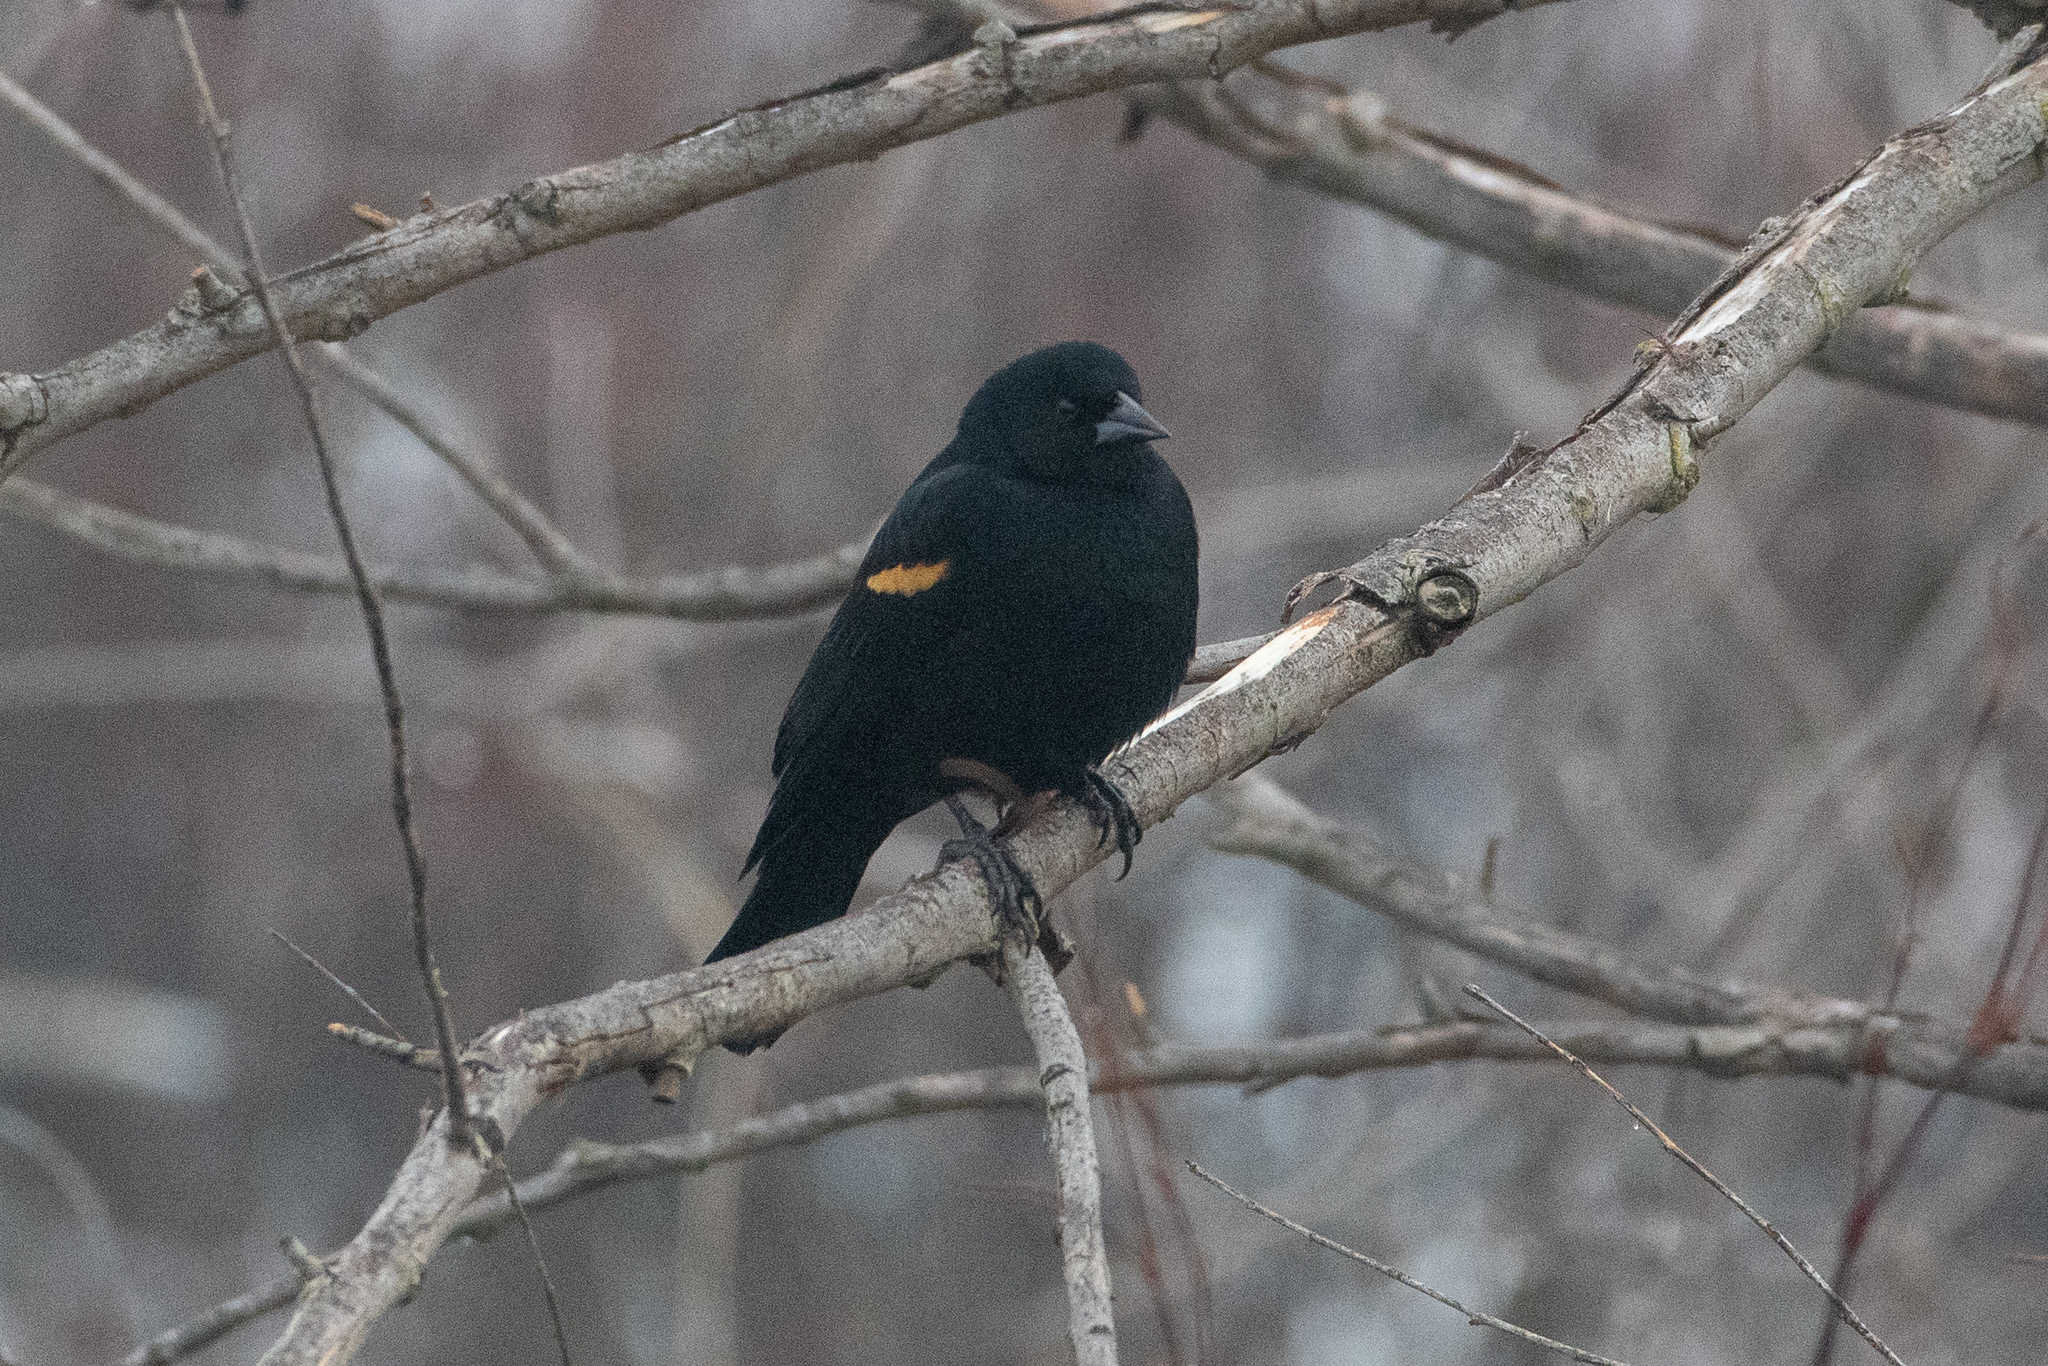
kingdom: Animalia
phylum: Chordata
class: Aves
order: Passeriformes
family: Icteridae
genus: Agelaius
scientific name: Agelaius phoeniceus
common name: Red-winged blackbird
